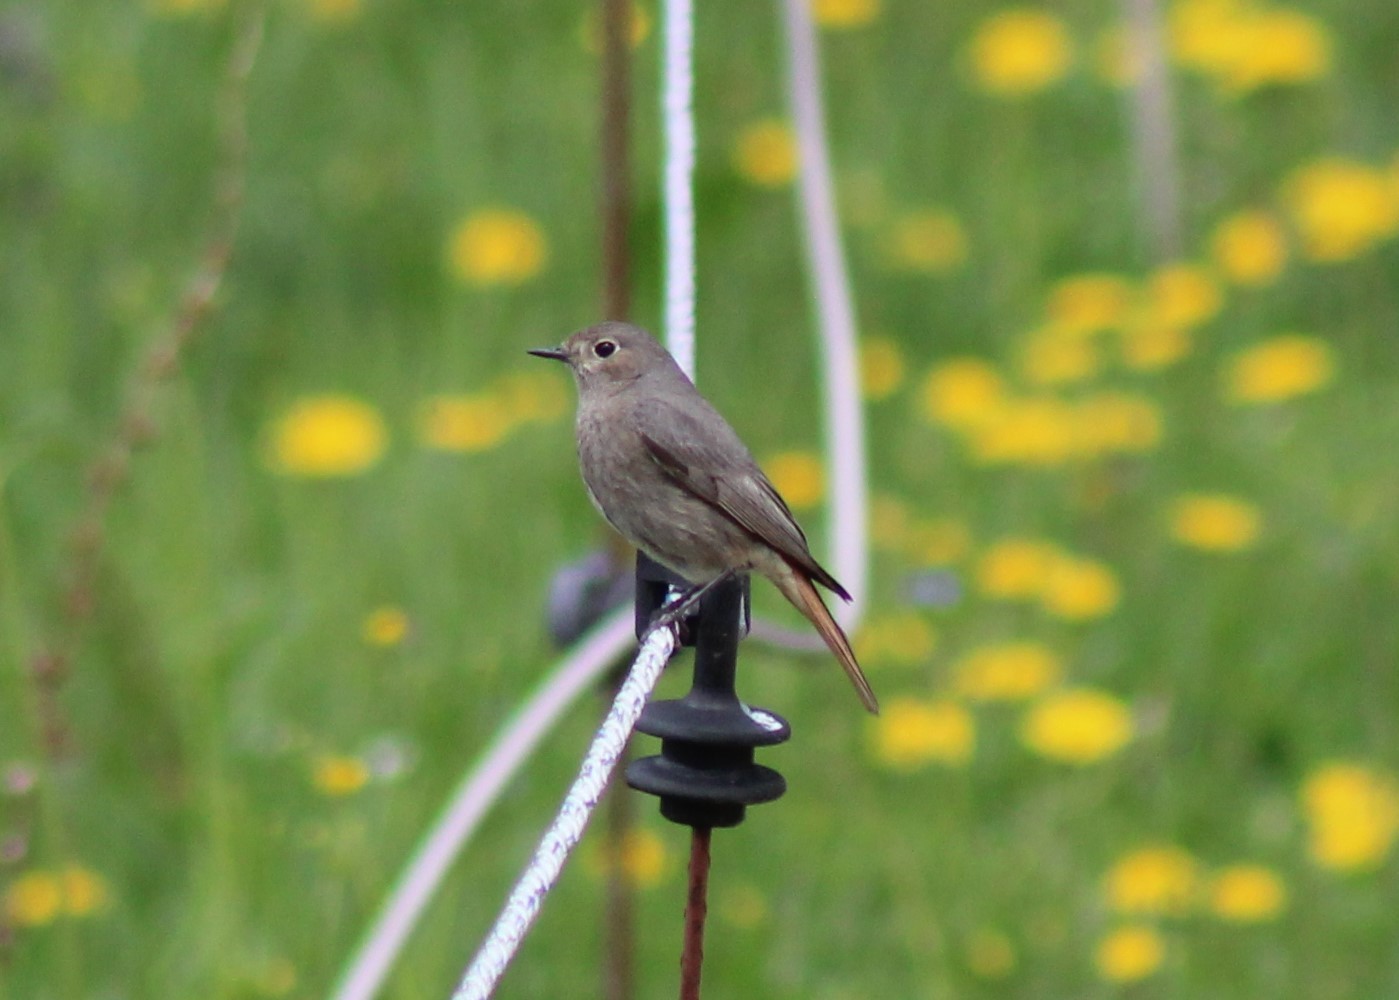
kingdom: Animalia
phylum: Chordata
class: Aves
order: Passeriformes
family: Muscicapidae
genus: Phoenicurus
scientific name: Phoenicurus ochruros
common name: Black redstart
